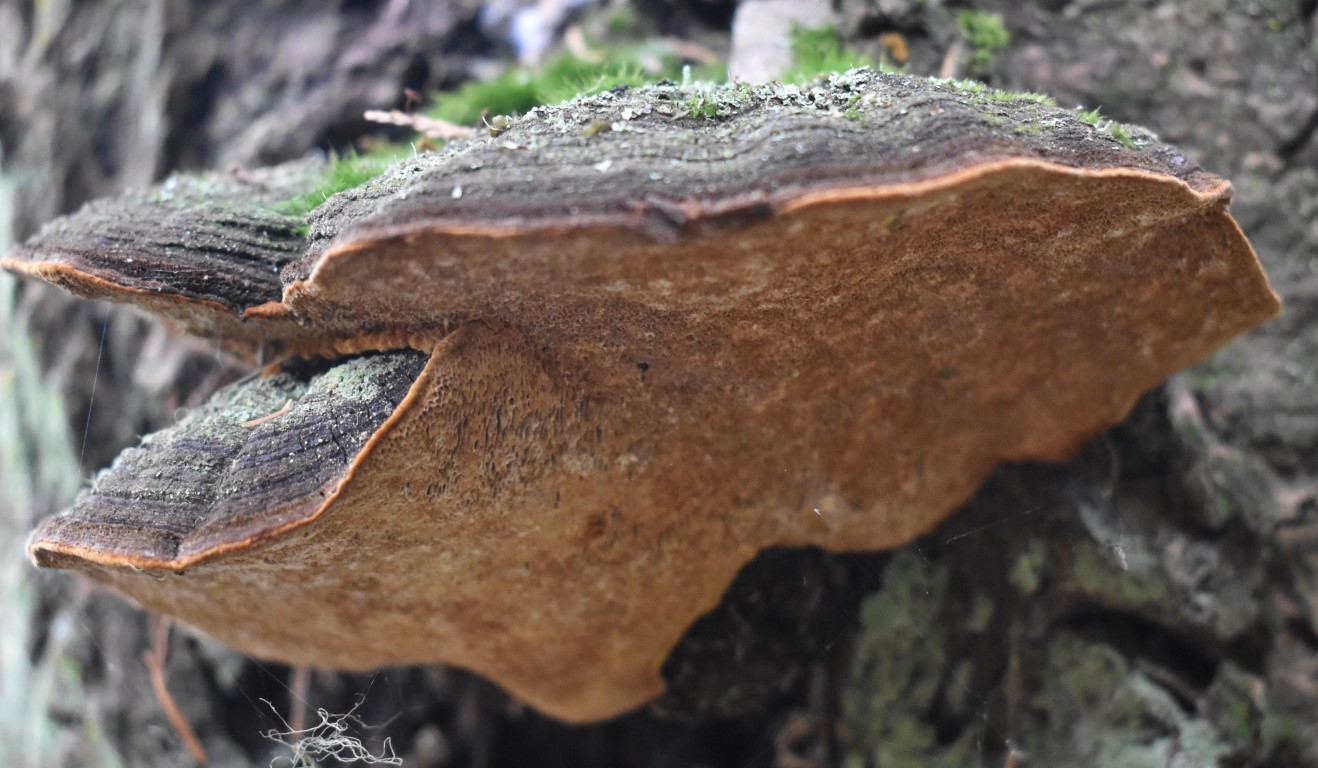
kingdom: Fungi
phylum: Basidiomycota
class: Agaricomycetes
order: Hymenochaetales
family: Hymenochaetaceae
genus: Porodaedalea
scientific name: Porodaedalea pini
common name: Pine bracket
